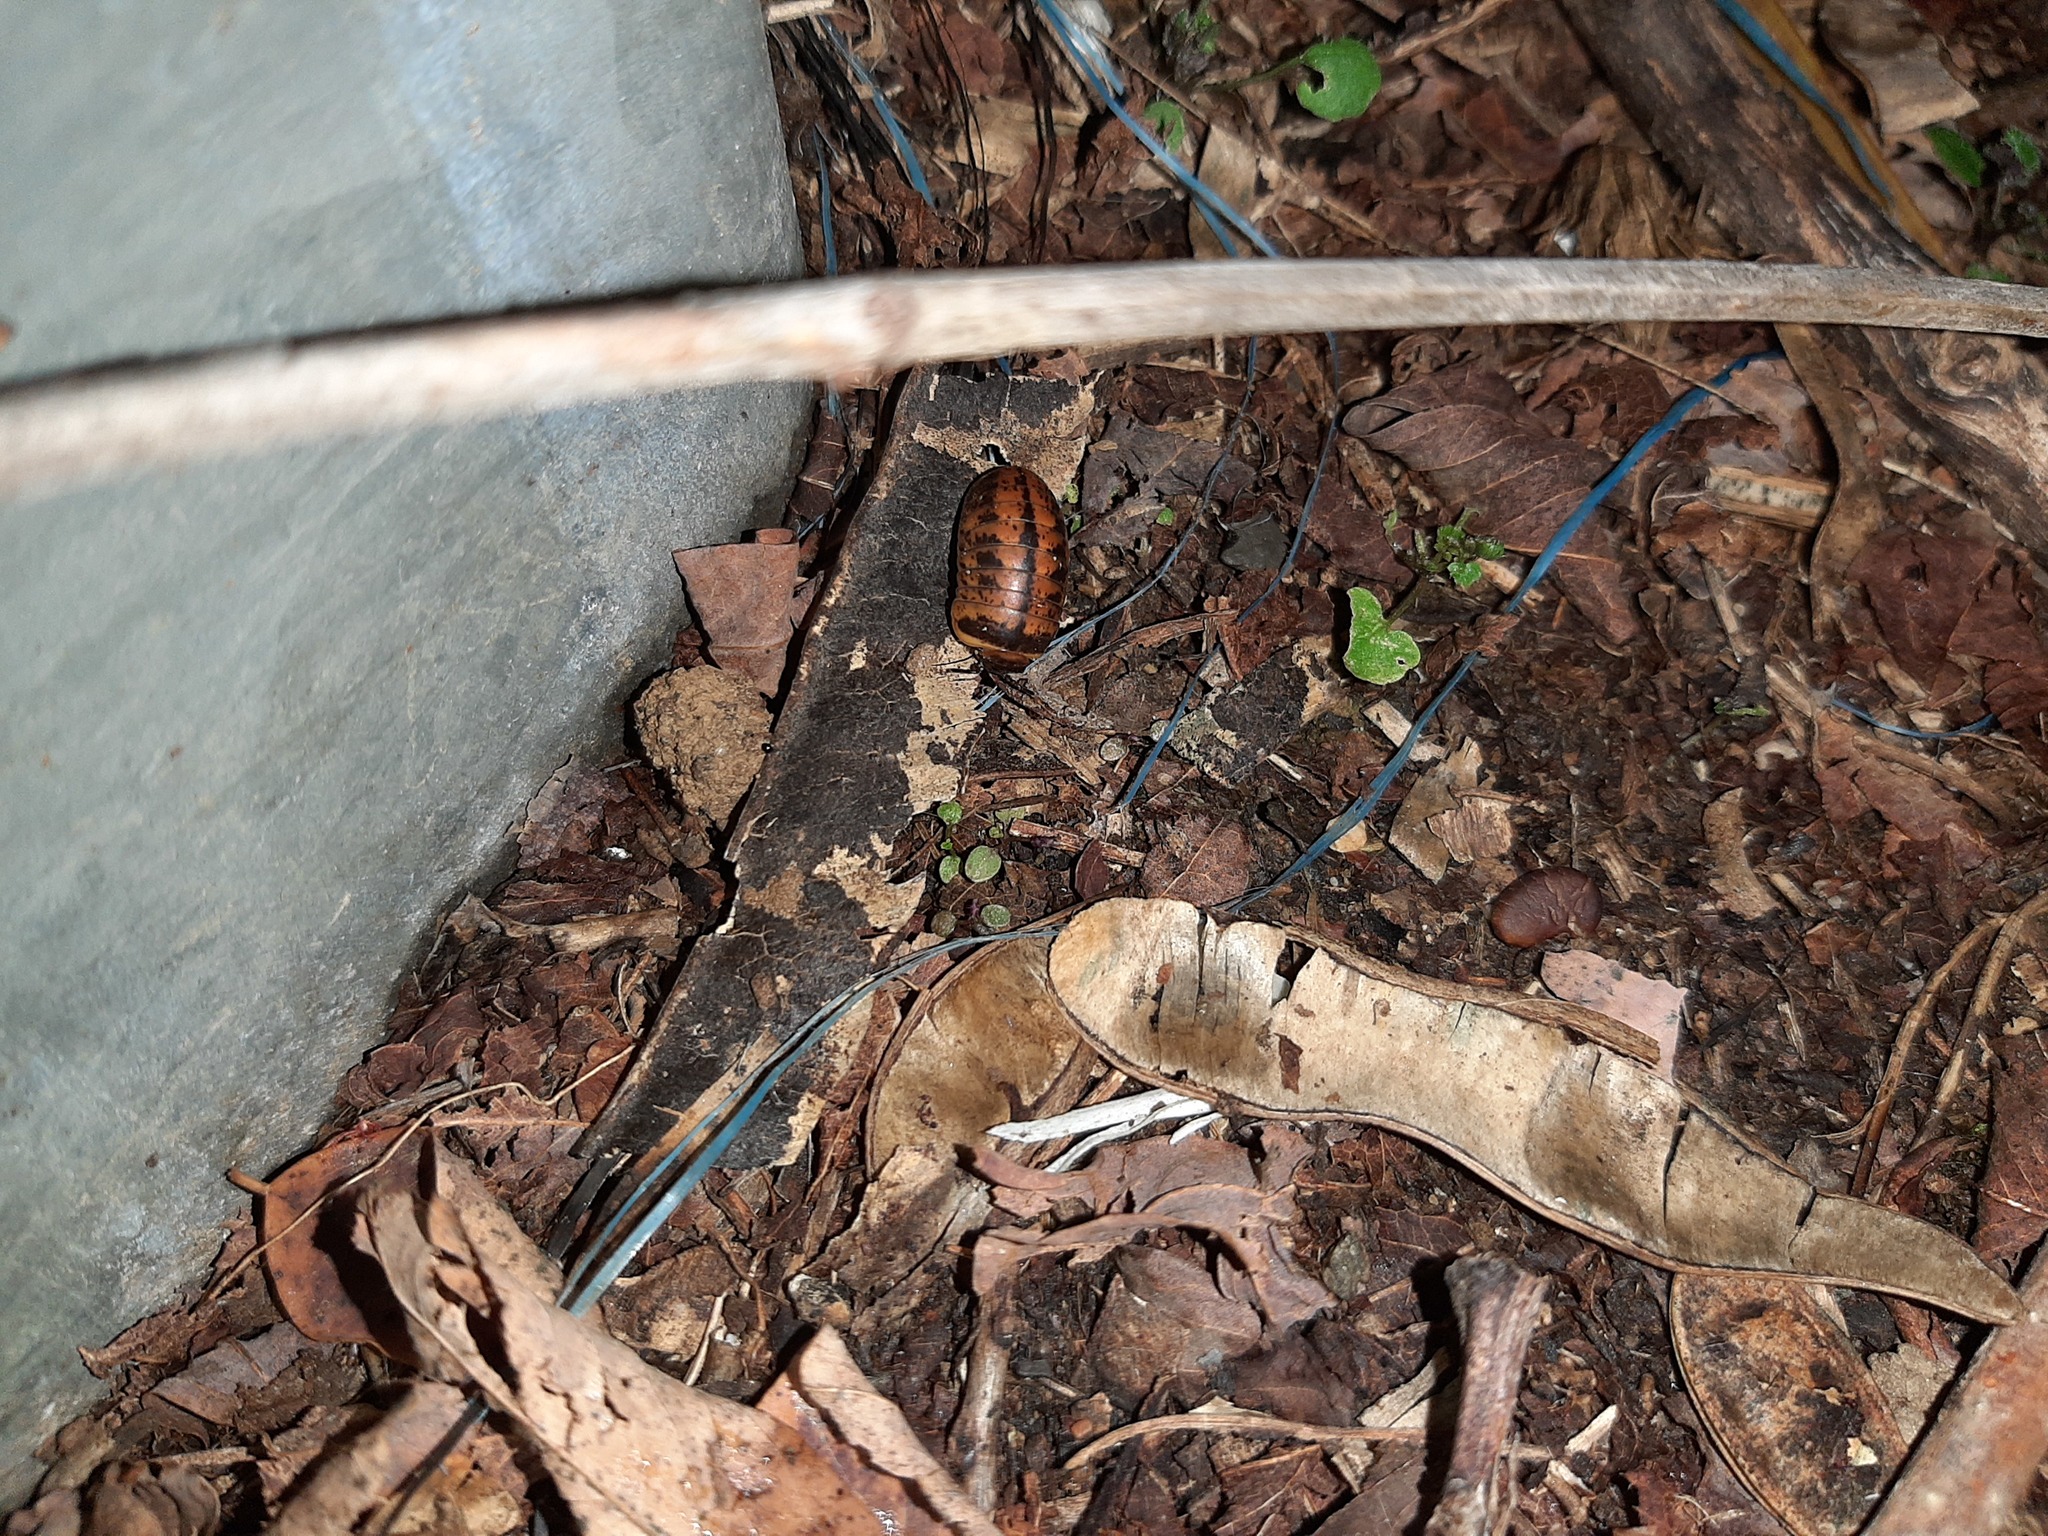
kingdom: Animalia
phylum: Arthropoda
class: Diplopoda
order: Glomerida
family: Glomeridae
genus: Glomeris
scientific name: Glomeris klugii
